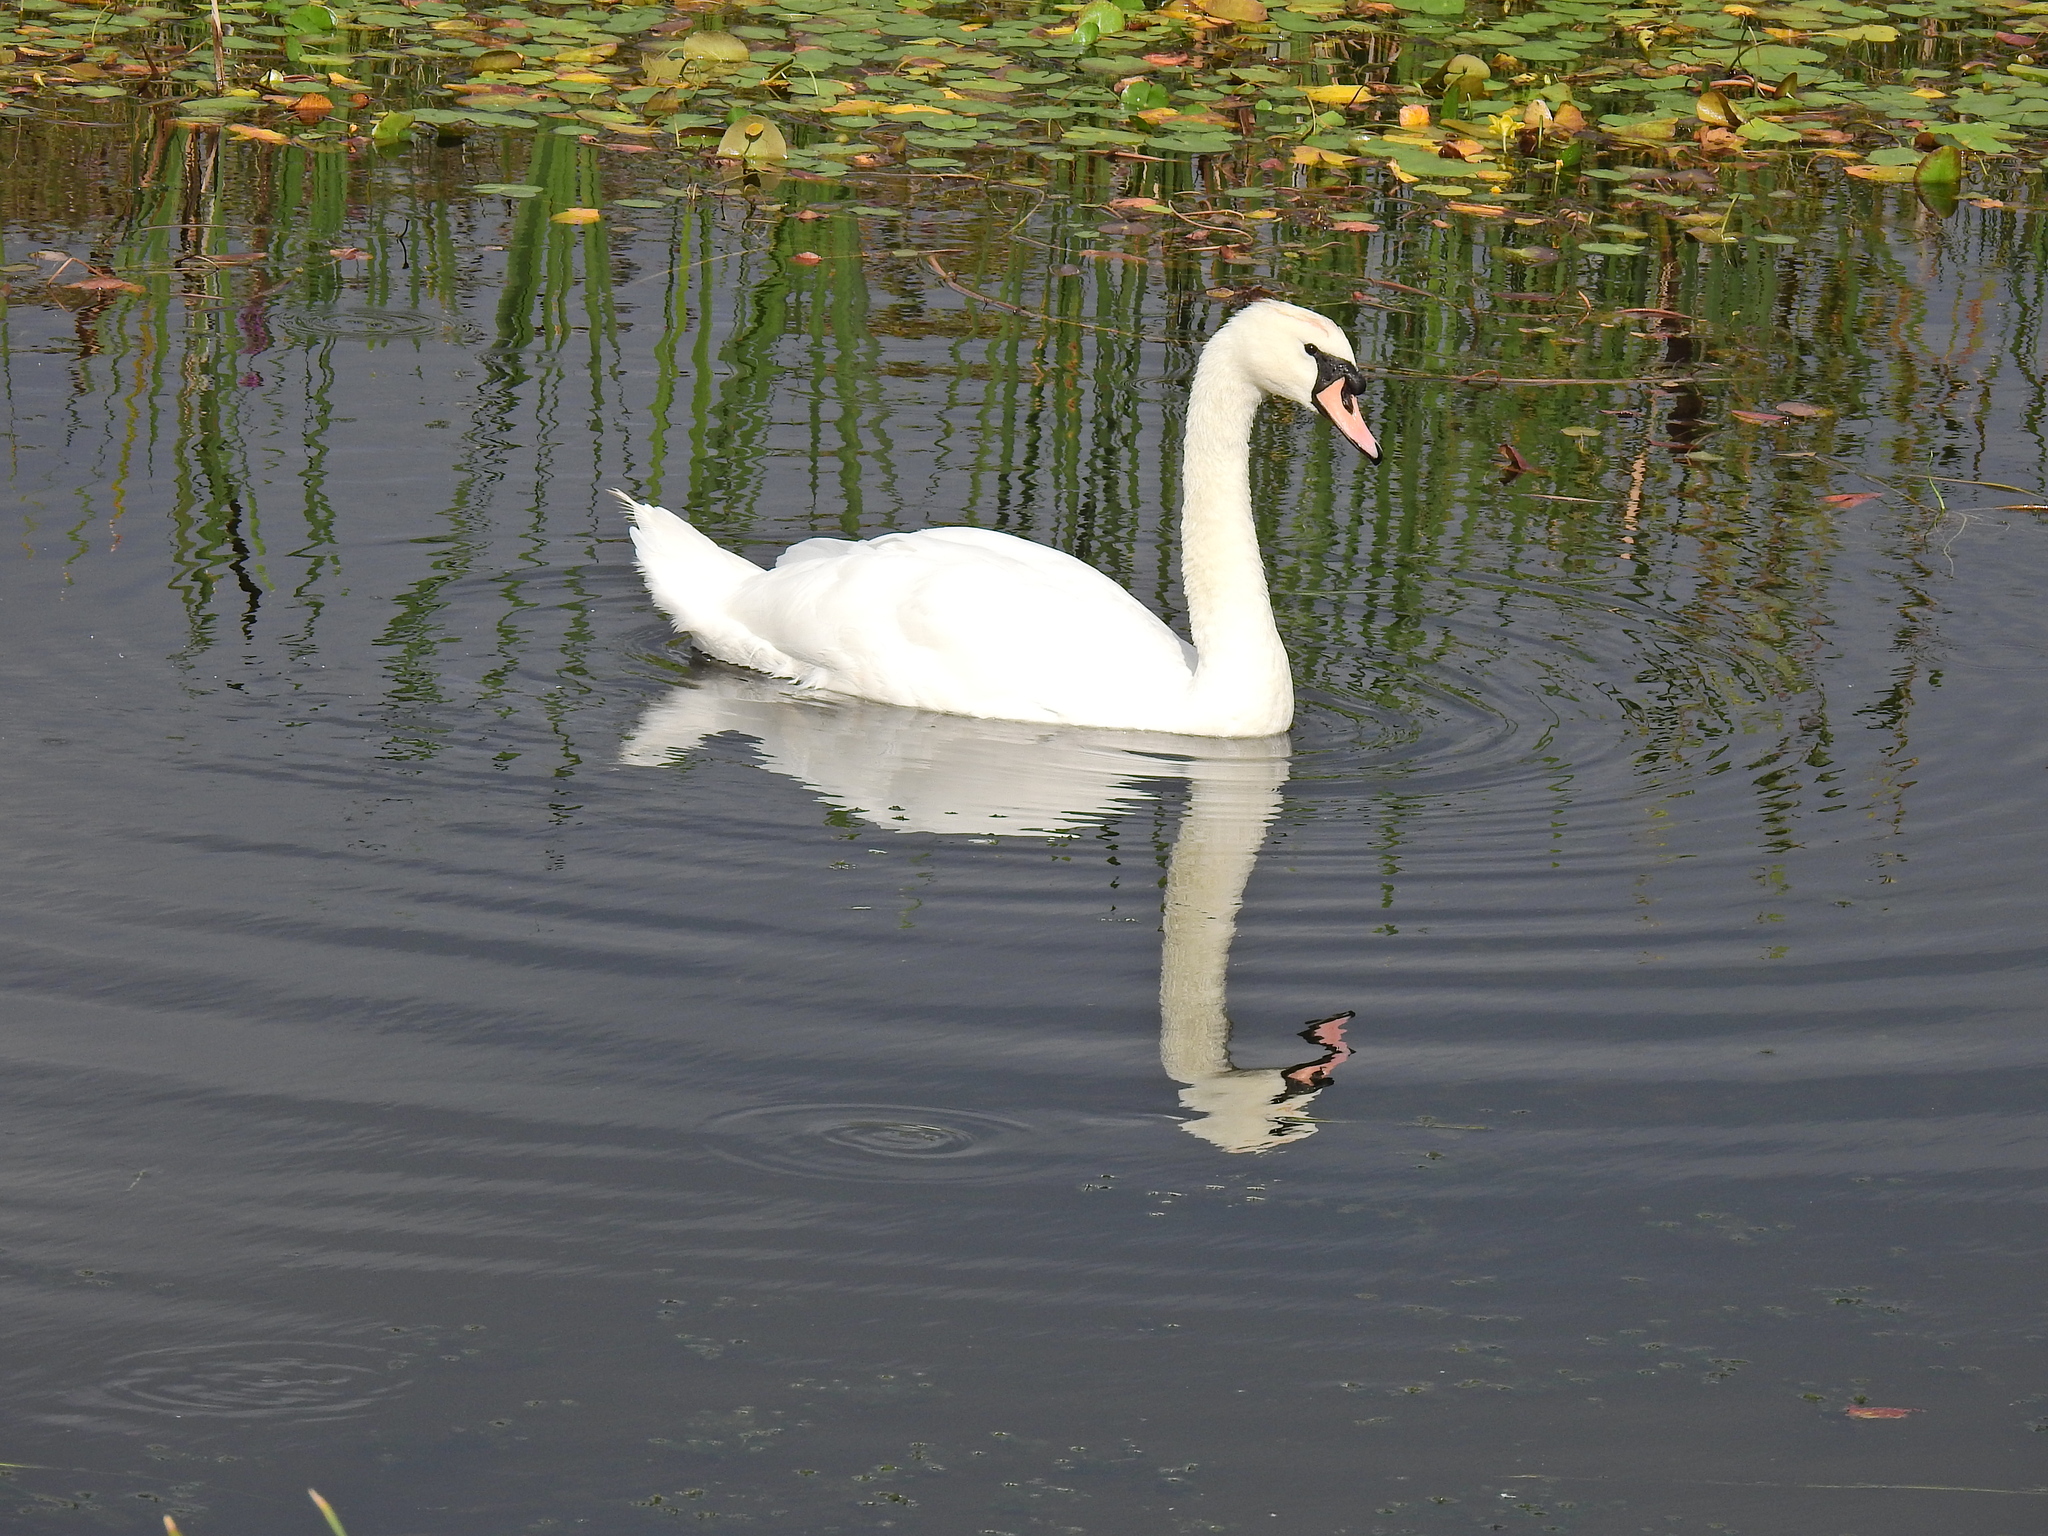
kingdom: Animalia
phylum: Chordata
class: Aves
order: Anseriformes
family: Anatidae
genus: Cygnus
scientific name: Cygnus olor
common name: Mute swan
